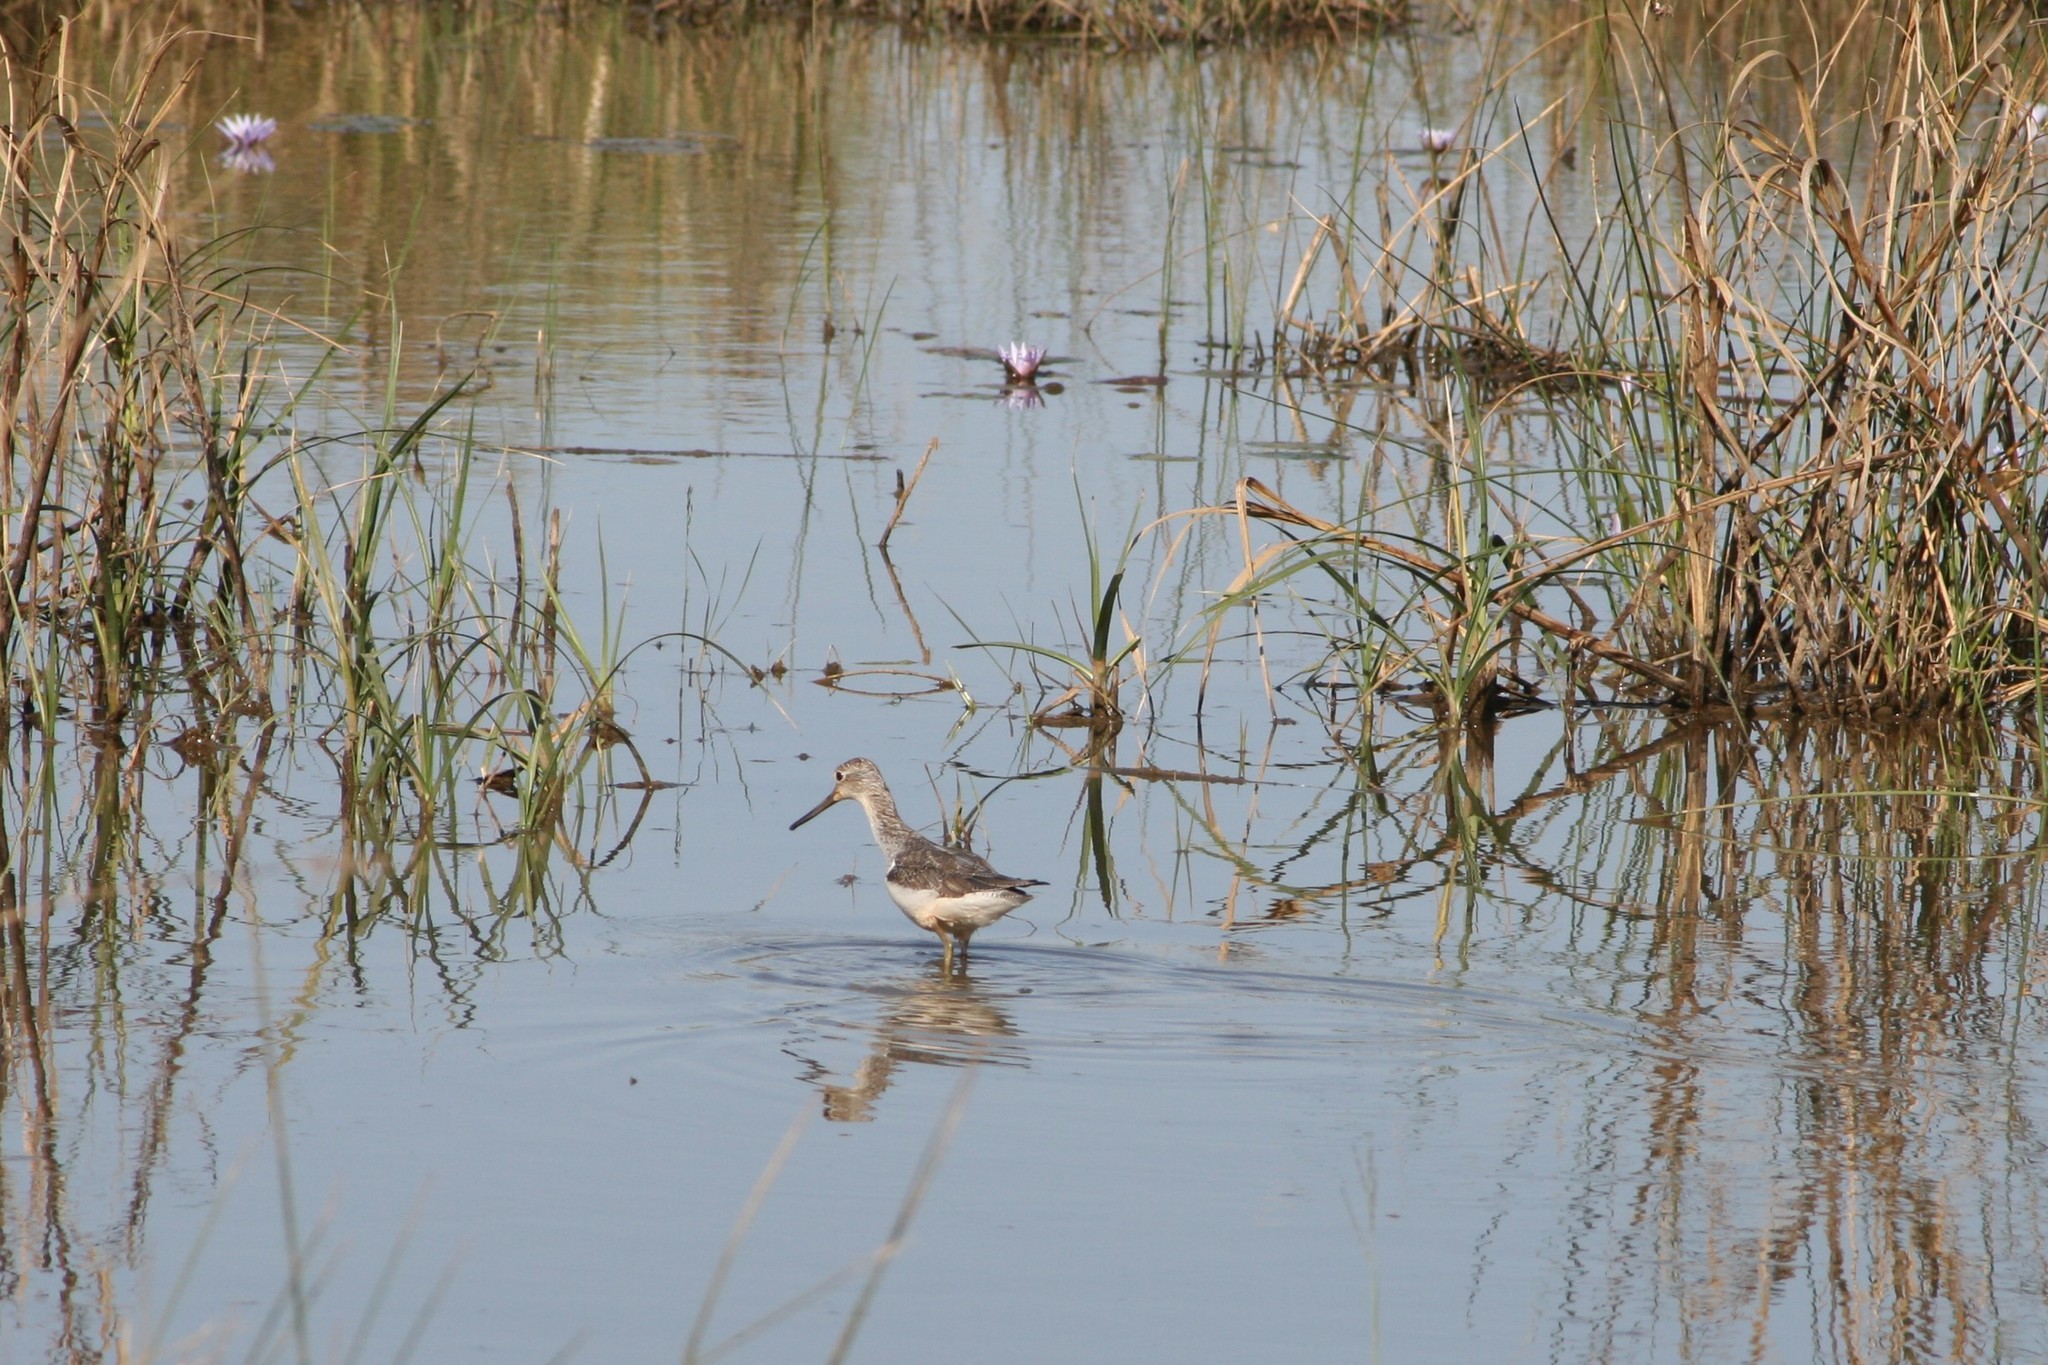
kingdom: Animalia
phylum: Chordata
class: Aves
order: Charadriiformes
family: Scolopacidae
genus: Tringa
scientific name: Tringa nebularia
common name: Common greenshank
